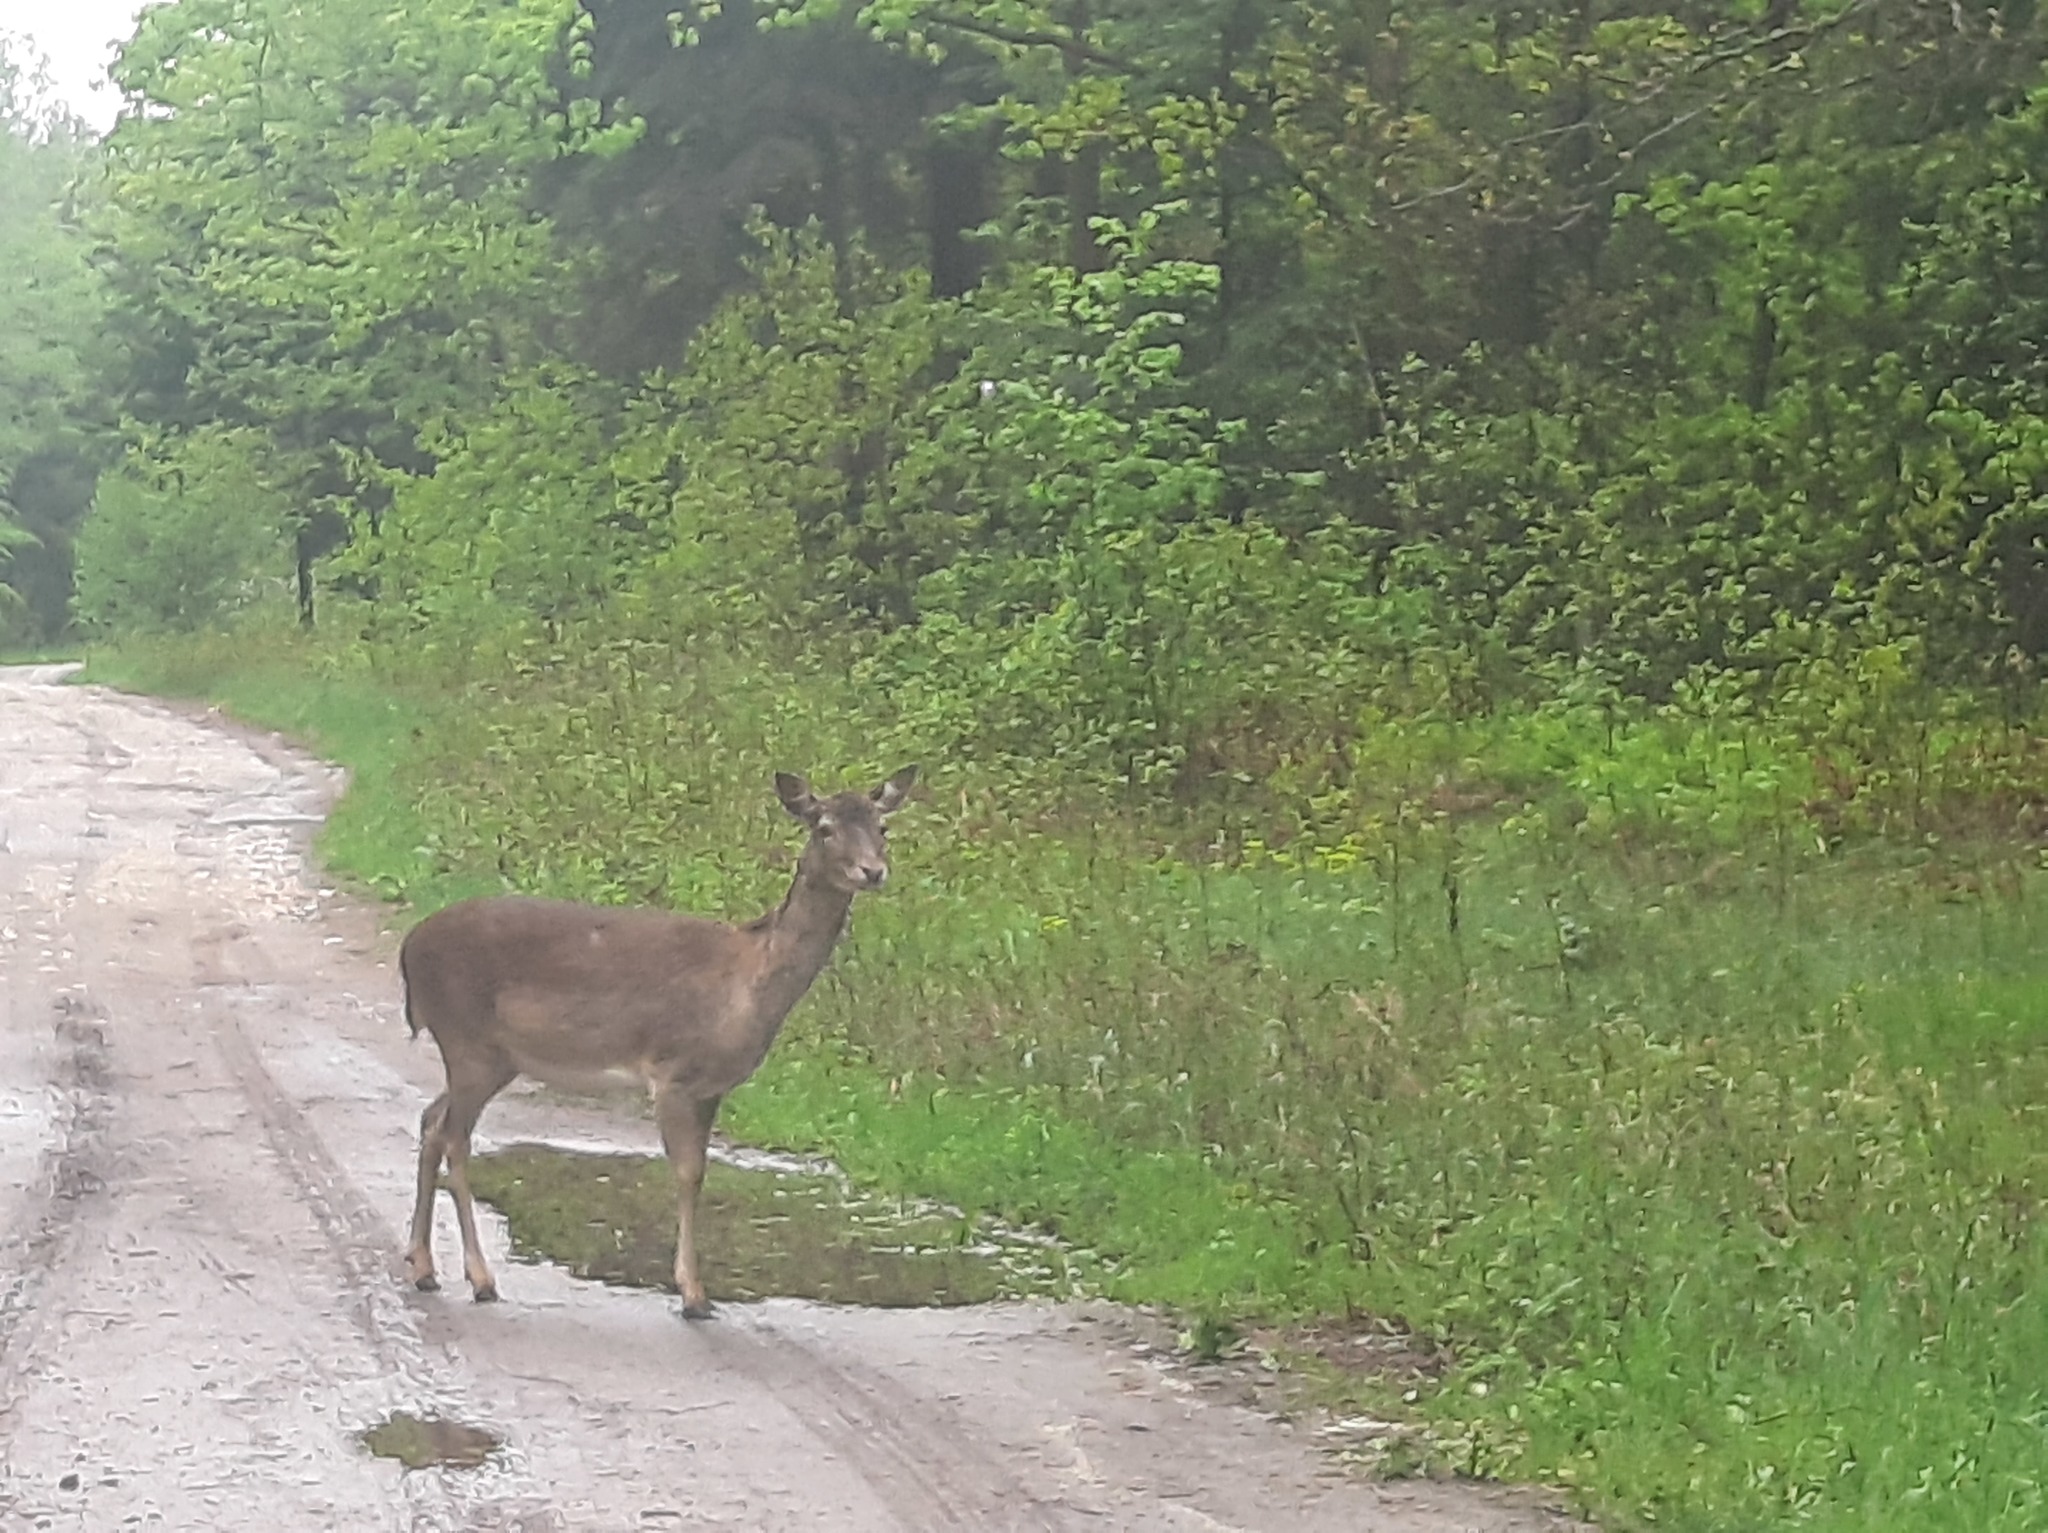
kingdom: Animalia
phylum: Chordata
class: Mammalia
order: Artiodactyla
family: Cervidae
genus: Dama
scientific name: Dama dama
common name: Fallow deer
